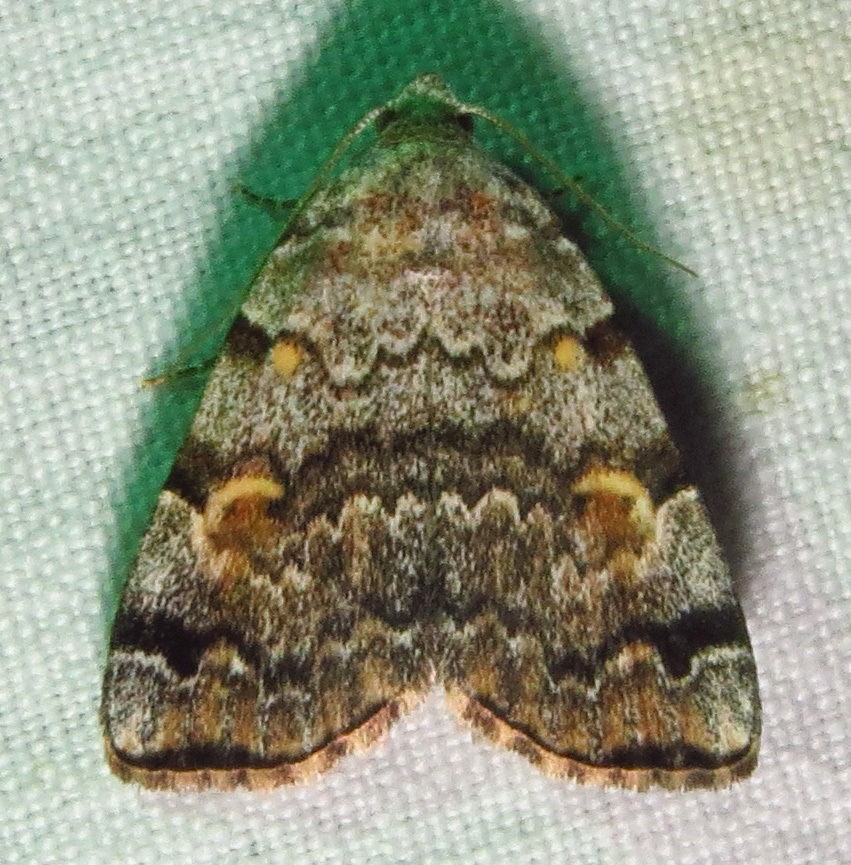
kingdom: Animalia
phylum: Arthropoda
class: Insecta
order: Lepidoptera
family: Erebidae
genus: Idia
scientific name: Idia americalis
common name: American idia moth
